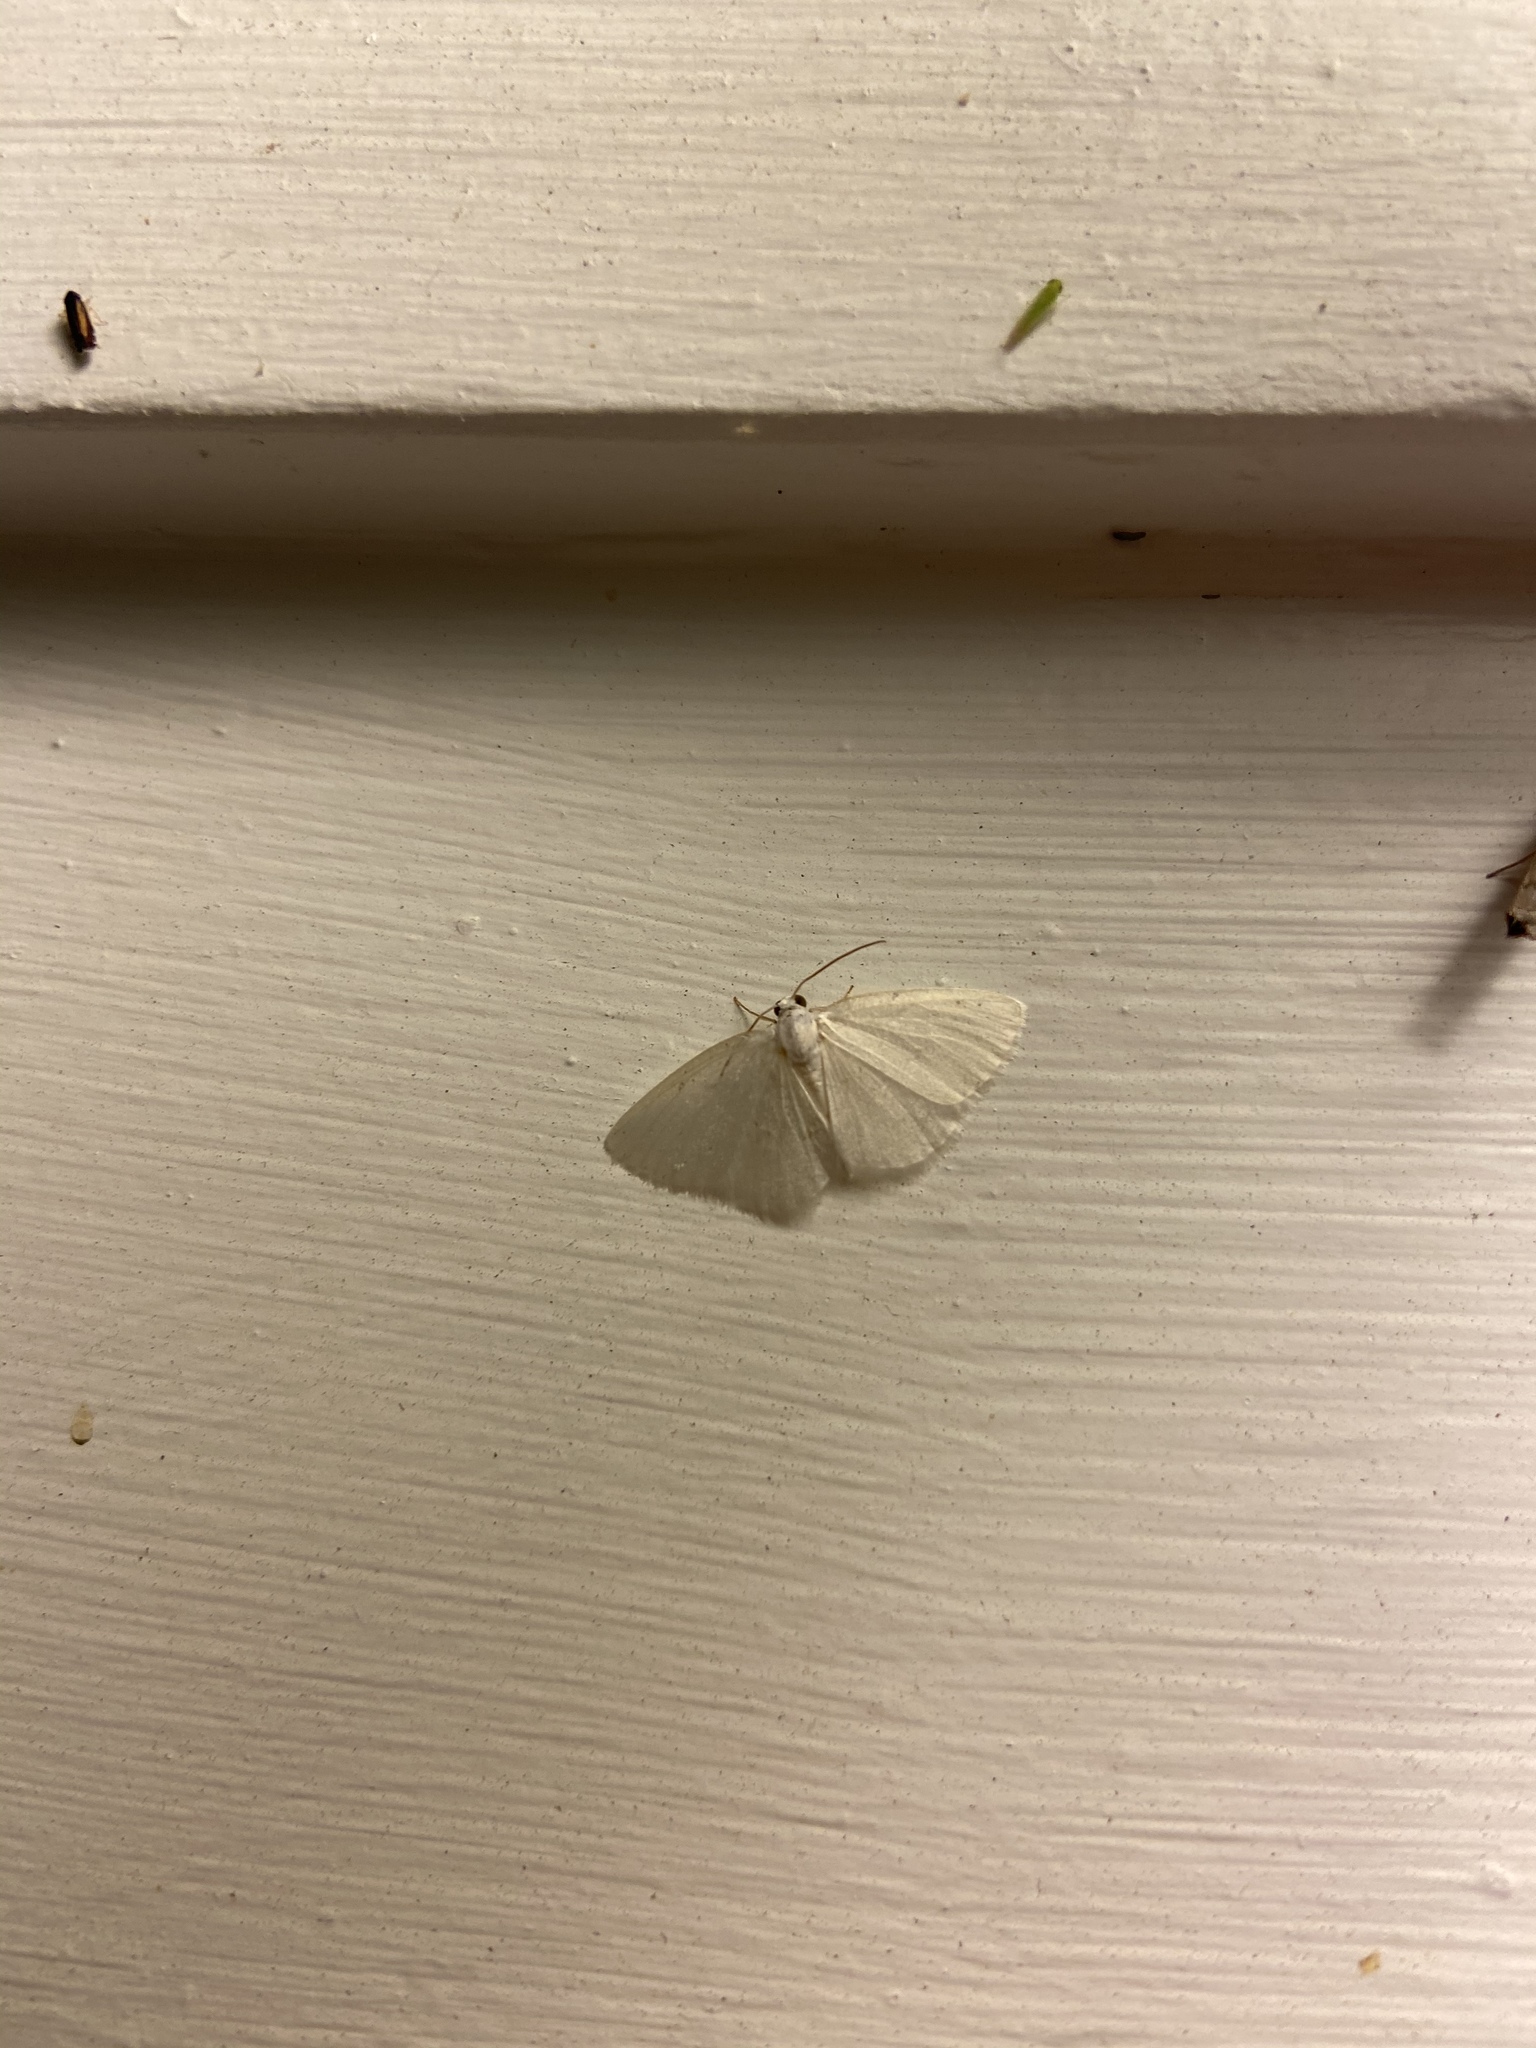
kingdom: Animalia
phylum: Arthropoda
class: Insecta
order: Lepidoptera
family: Geometridae
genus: Lomographa
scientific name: Lomographa vestaliata
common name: White spring moth
